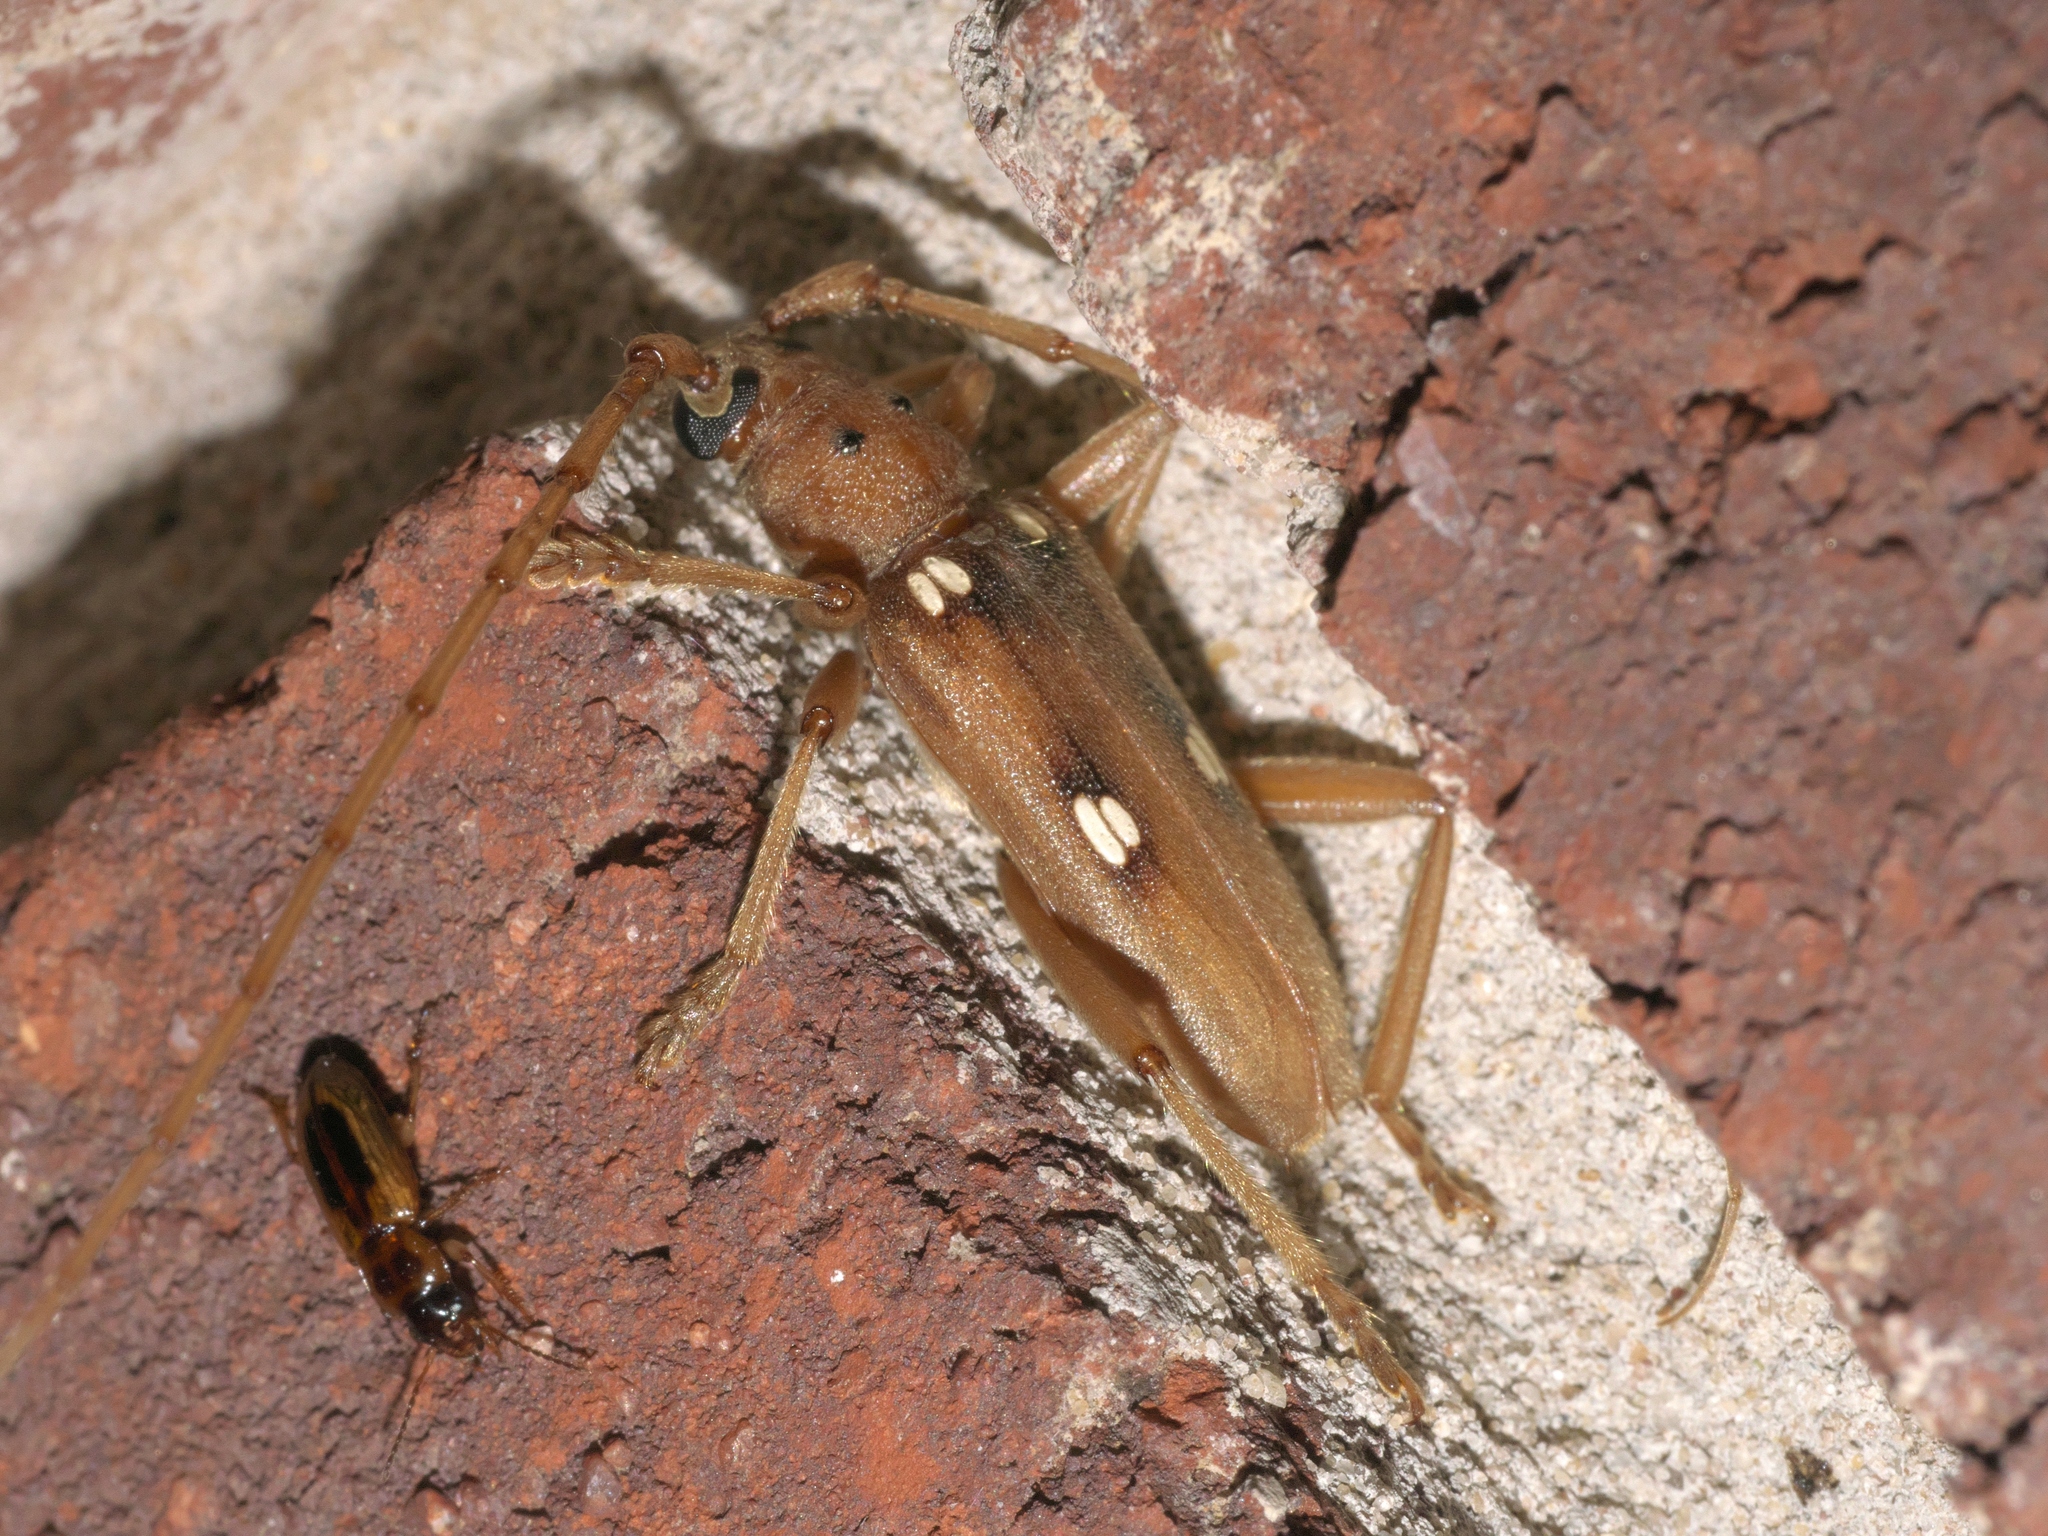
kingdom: Animalia
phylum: Arthropoda
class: Insecta
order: Coleoptera
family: Cerambycidae
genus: Eburia
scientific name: Eburia haldemani
